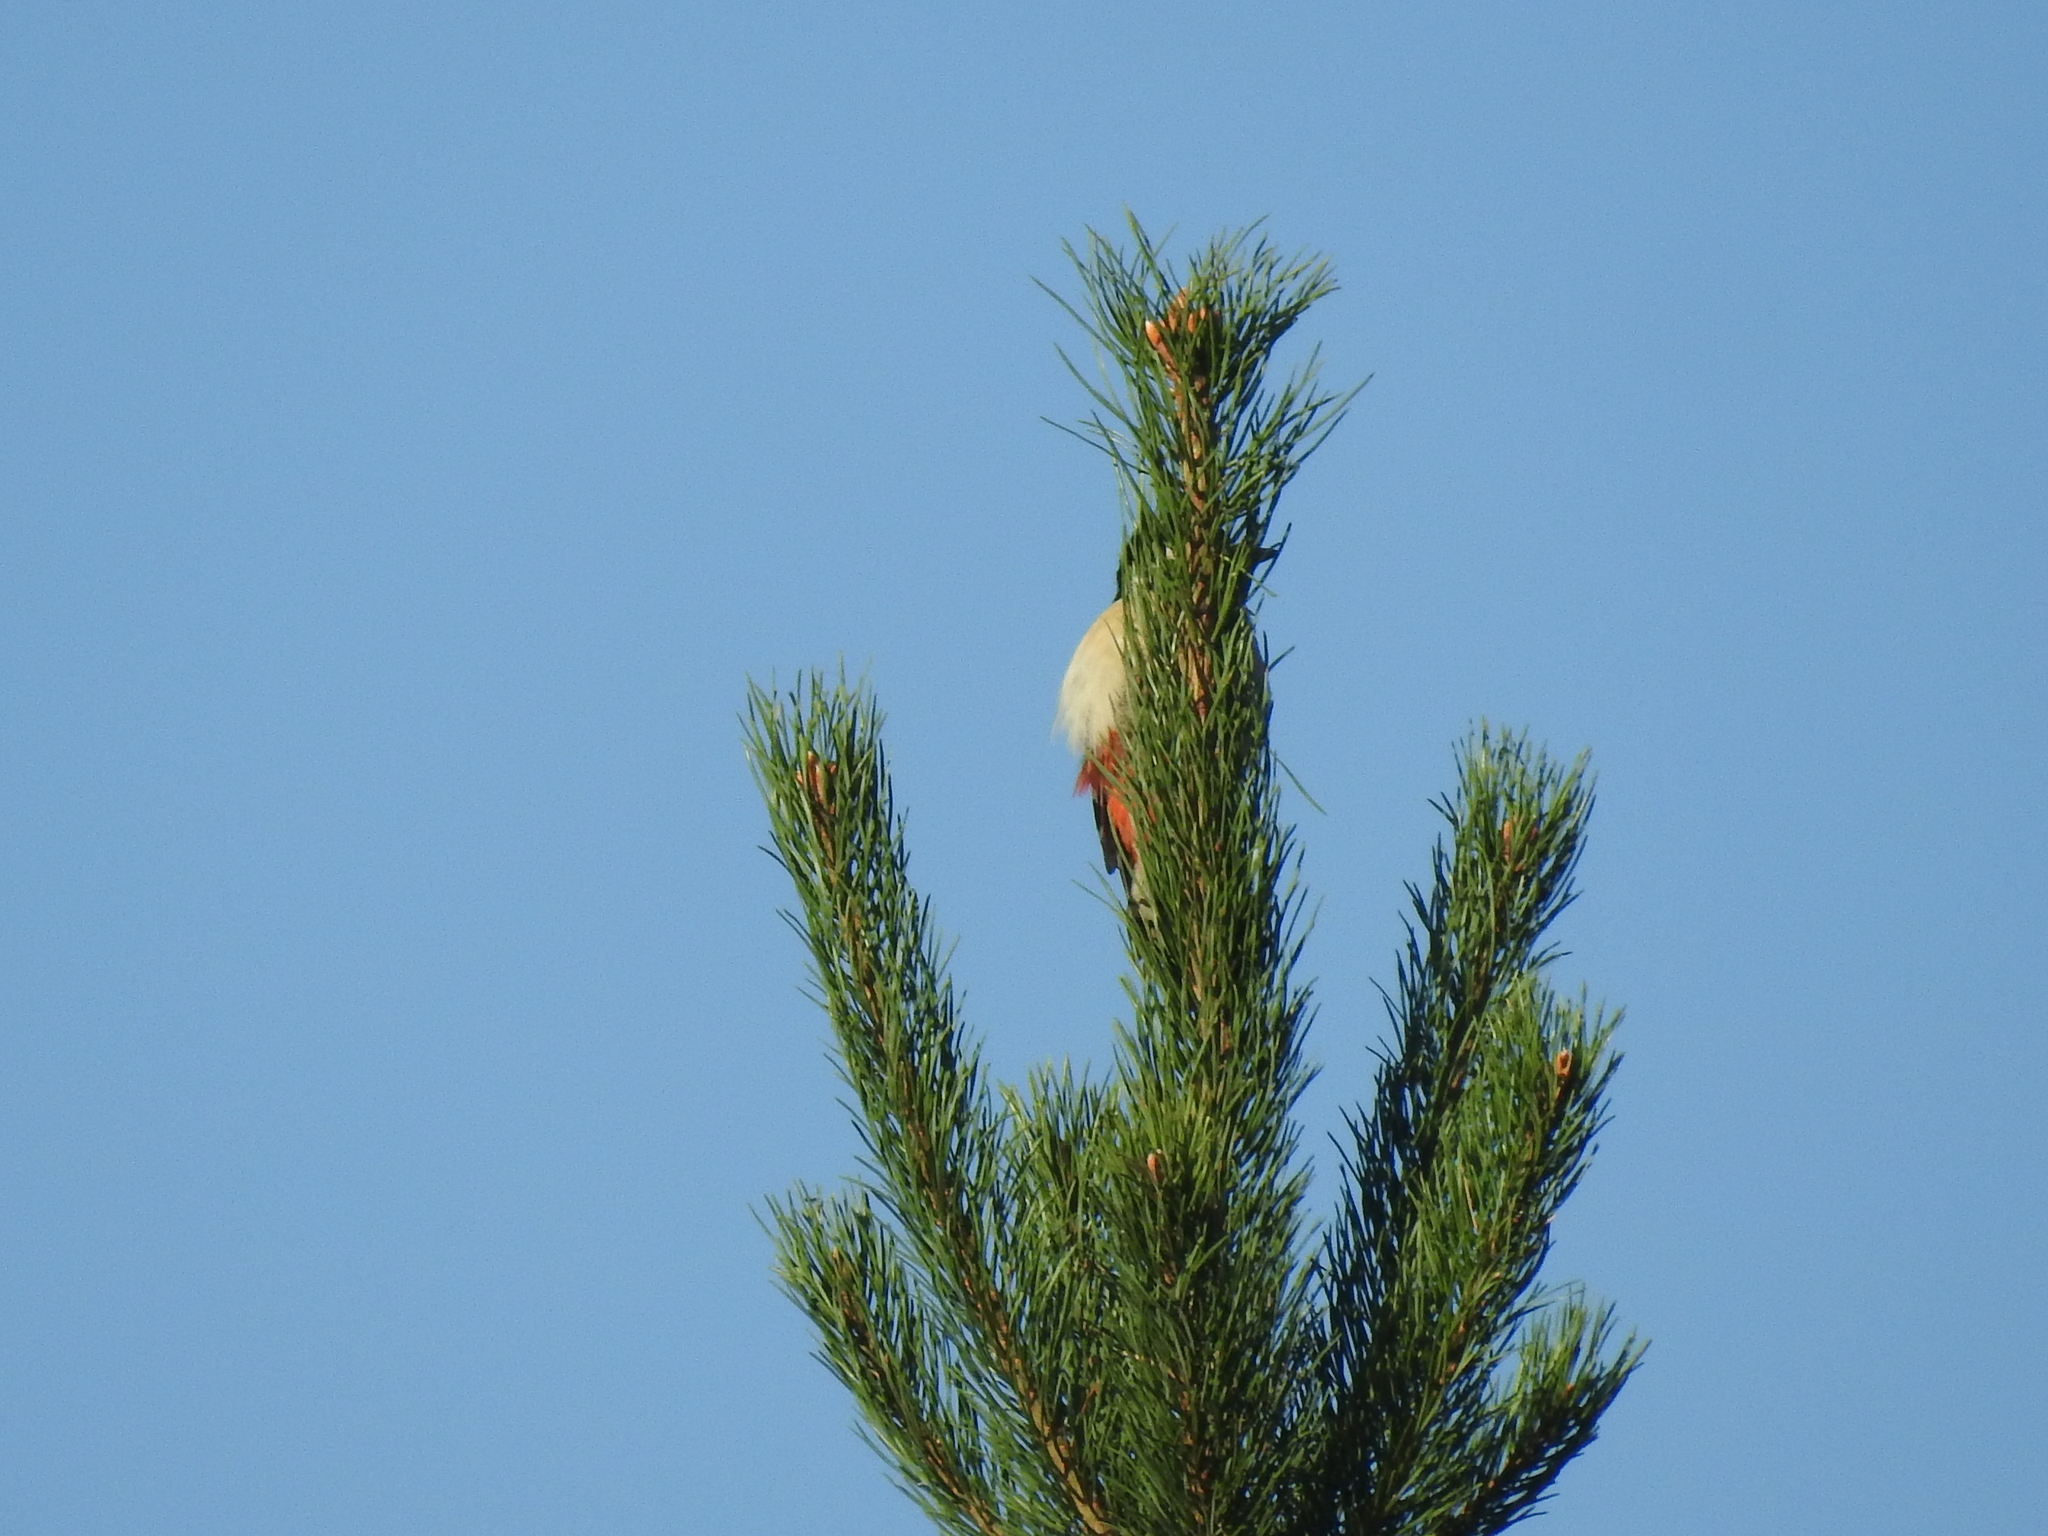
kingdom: Animalia
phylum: Chordata
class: Aves
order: Piciformes
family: Picidae
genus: Dendrocopos
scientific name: Dendrocopos major
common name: Great spotted woodpecker
